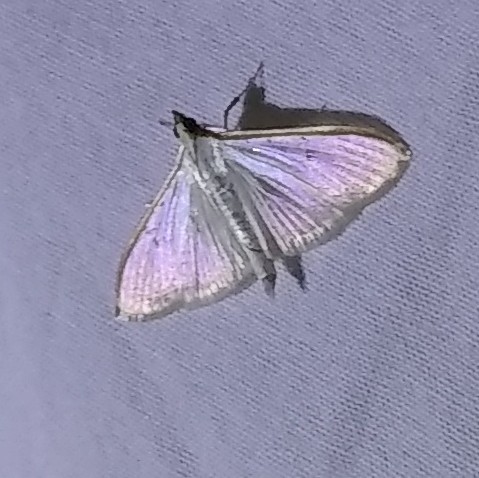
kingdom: Animalia
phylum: Arthropoda
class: Insecta
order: Lepidoptera
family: Crambidae
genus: Palpita
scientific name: Palpita quadristigmalis
